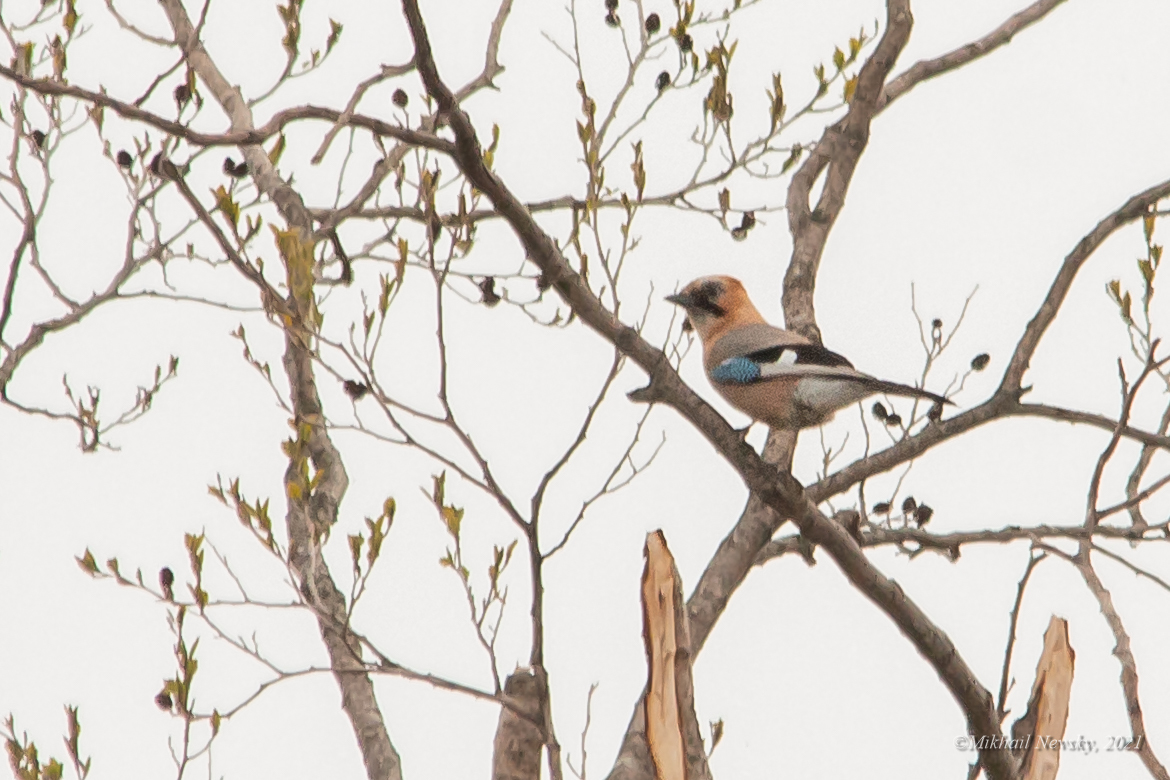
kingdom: Animalia
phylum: Chordata
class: Aves
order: Passeriformes
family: Corvidae
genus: Garrulus
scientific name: Garrulus glandarius
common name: Eurasian jay
